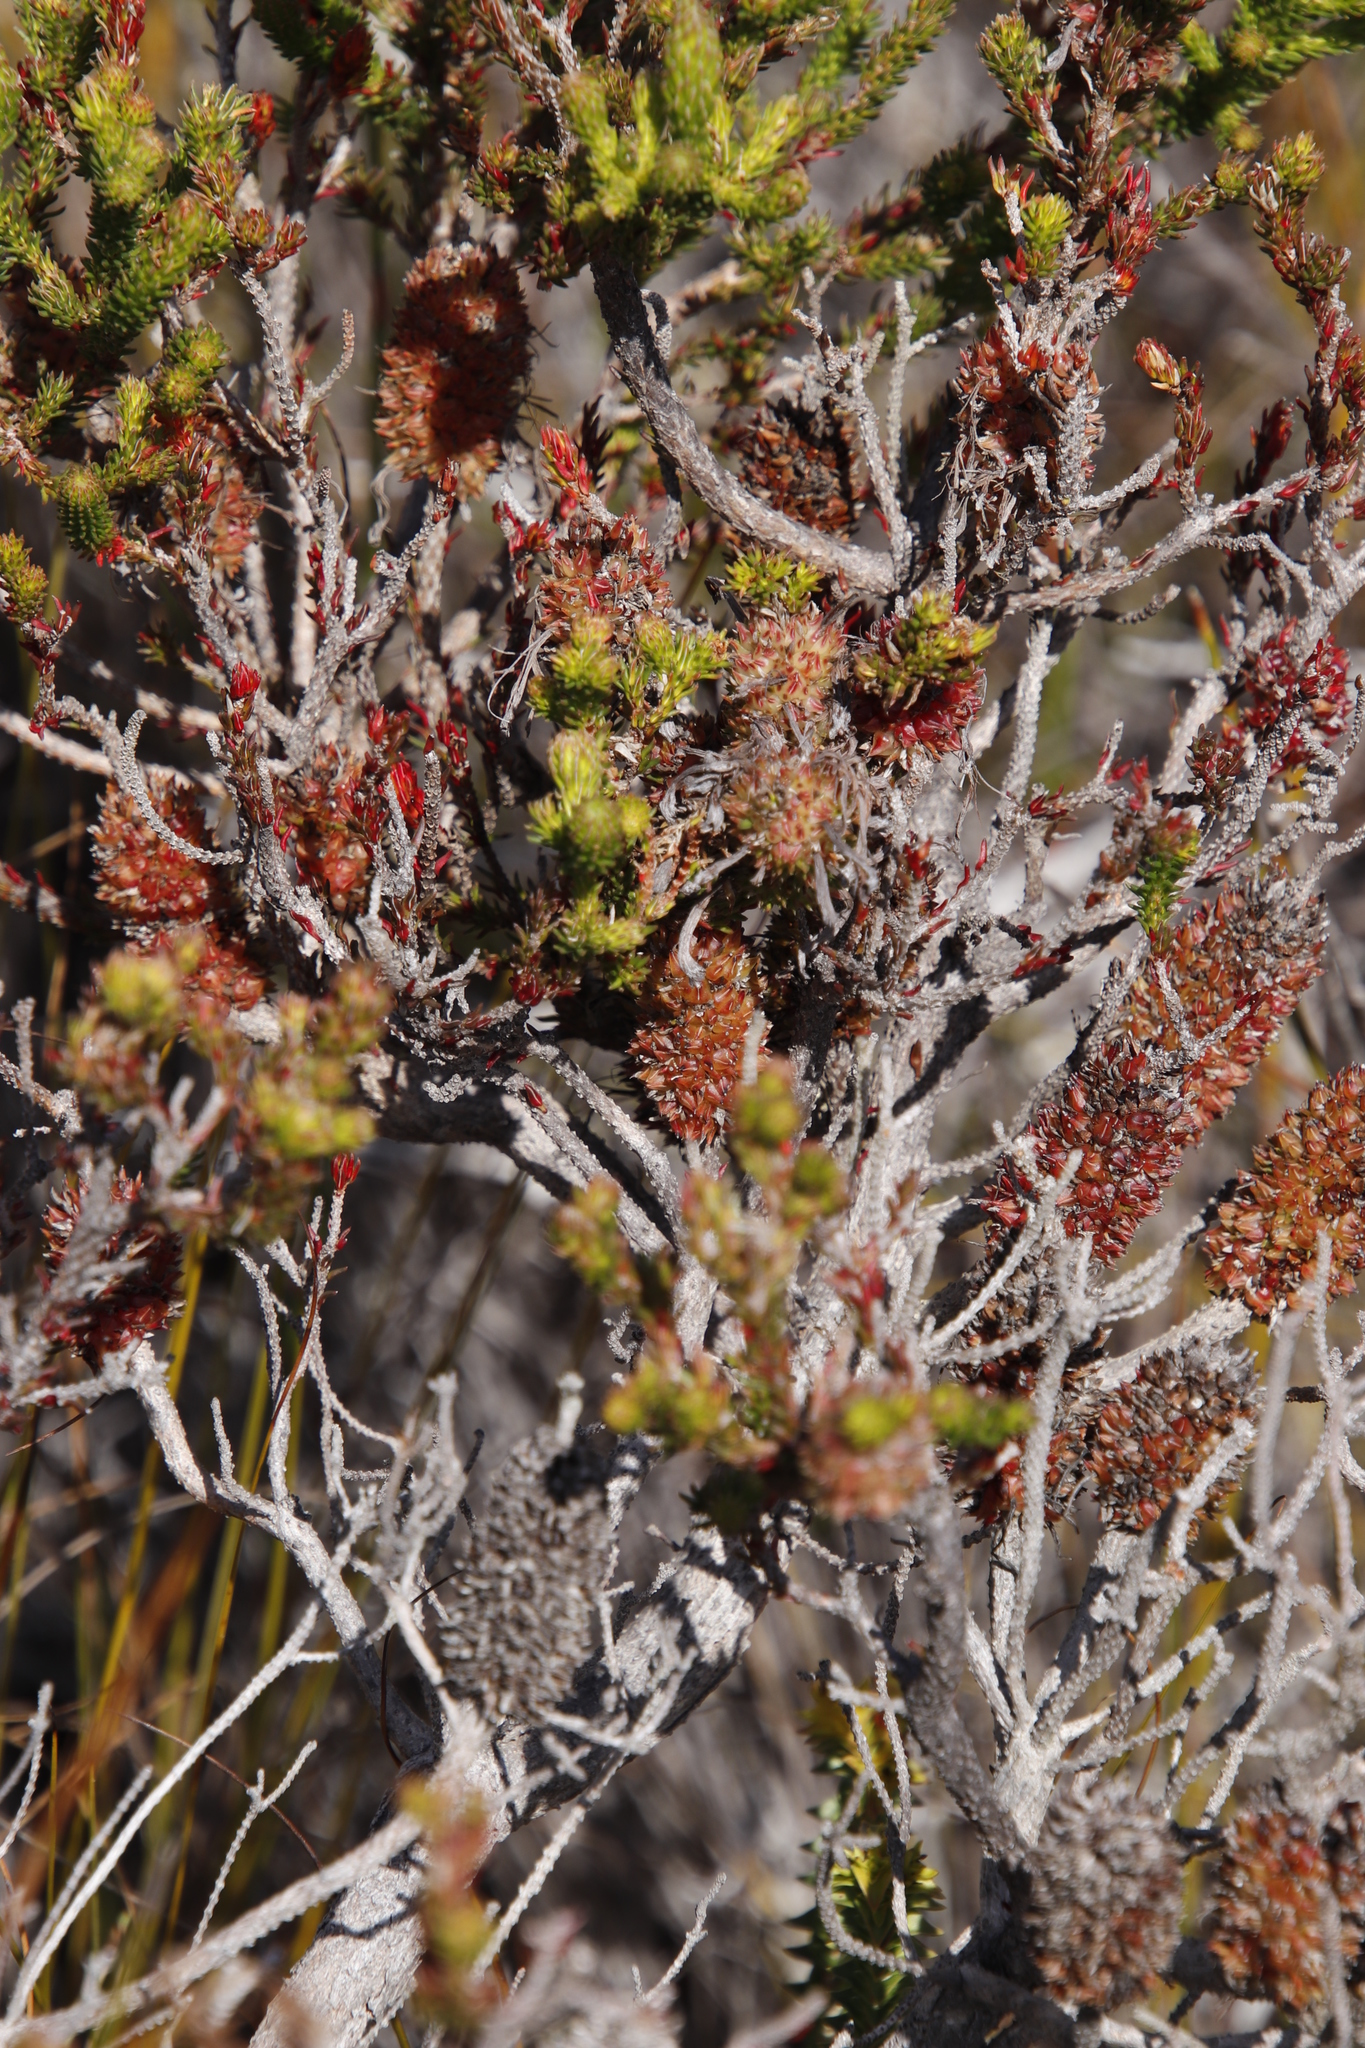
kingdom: Plantae
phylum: Tracheophyta
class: Magnoliopsida
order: Ericales
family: Ericaceae
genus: Erica
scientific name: Erica sessiliflora
